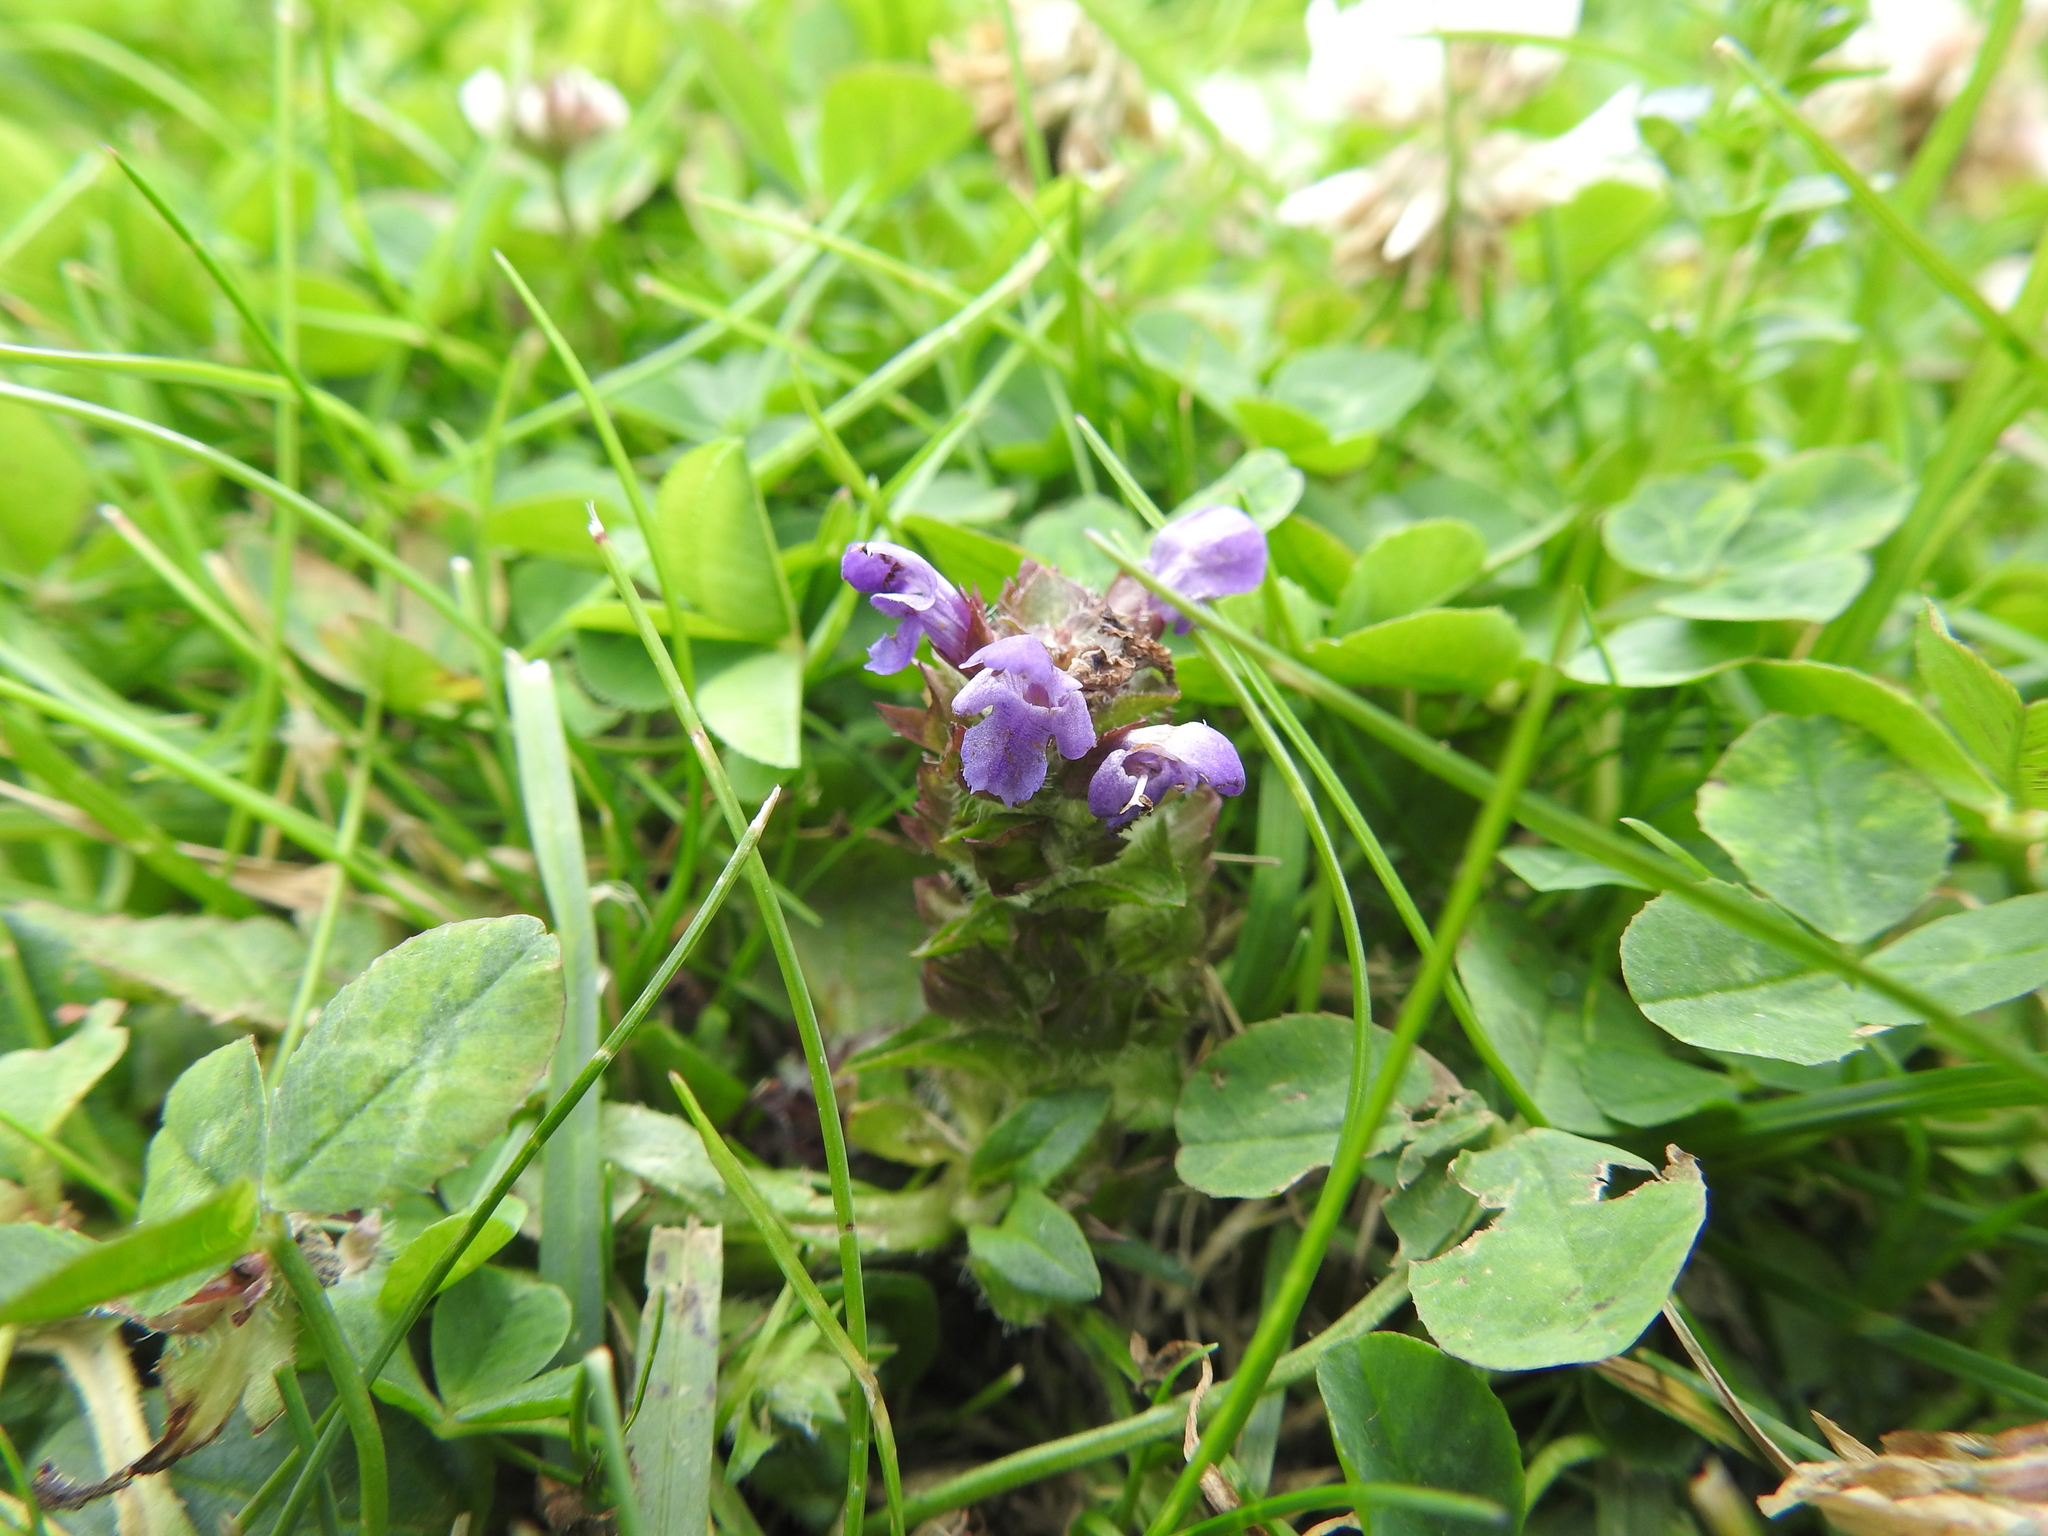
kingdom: Plantae
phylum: Tracheophyta
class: Magnoliopsida
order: Lamiales
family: Lamiaceae
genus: Prunella
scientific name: Prunella vulgaris
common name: Heal-all
